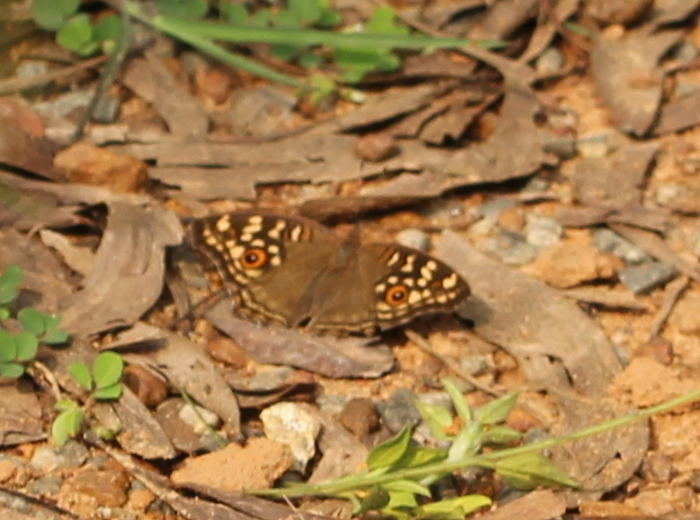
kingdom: Animalia
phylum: Arthropoda
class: Insecta
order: Lepidoptera
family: Nymphalidae
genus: Junonia
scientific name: Junonia lemonias
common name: Lemon pansy
